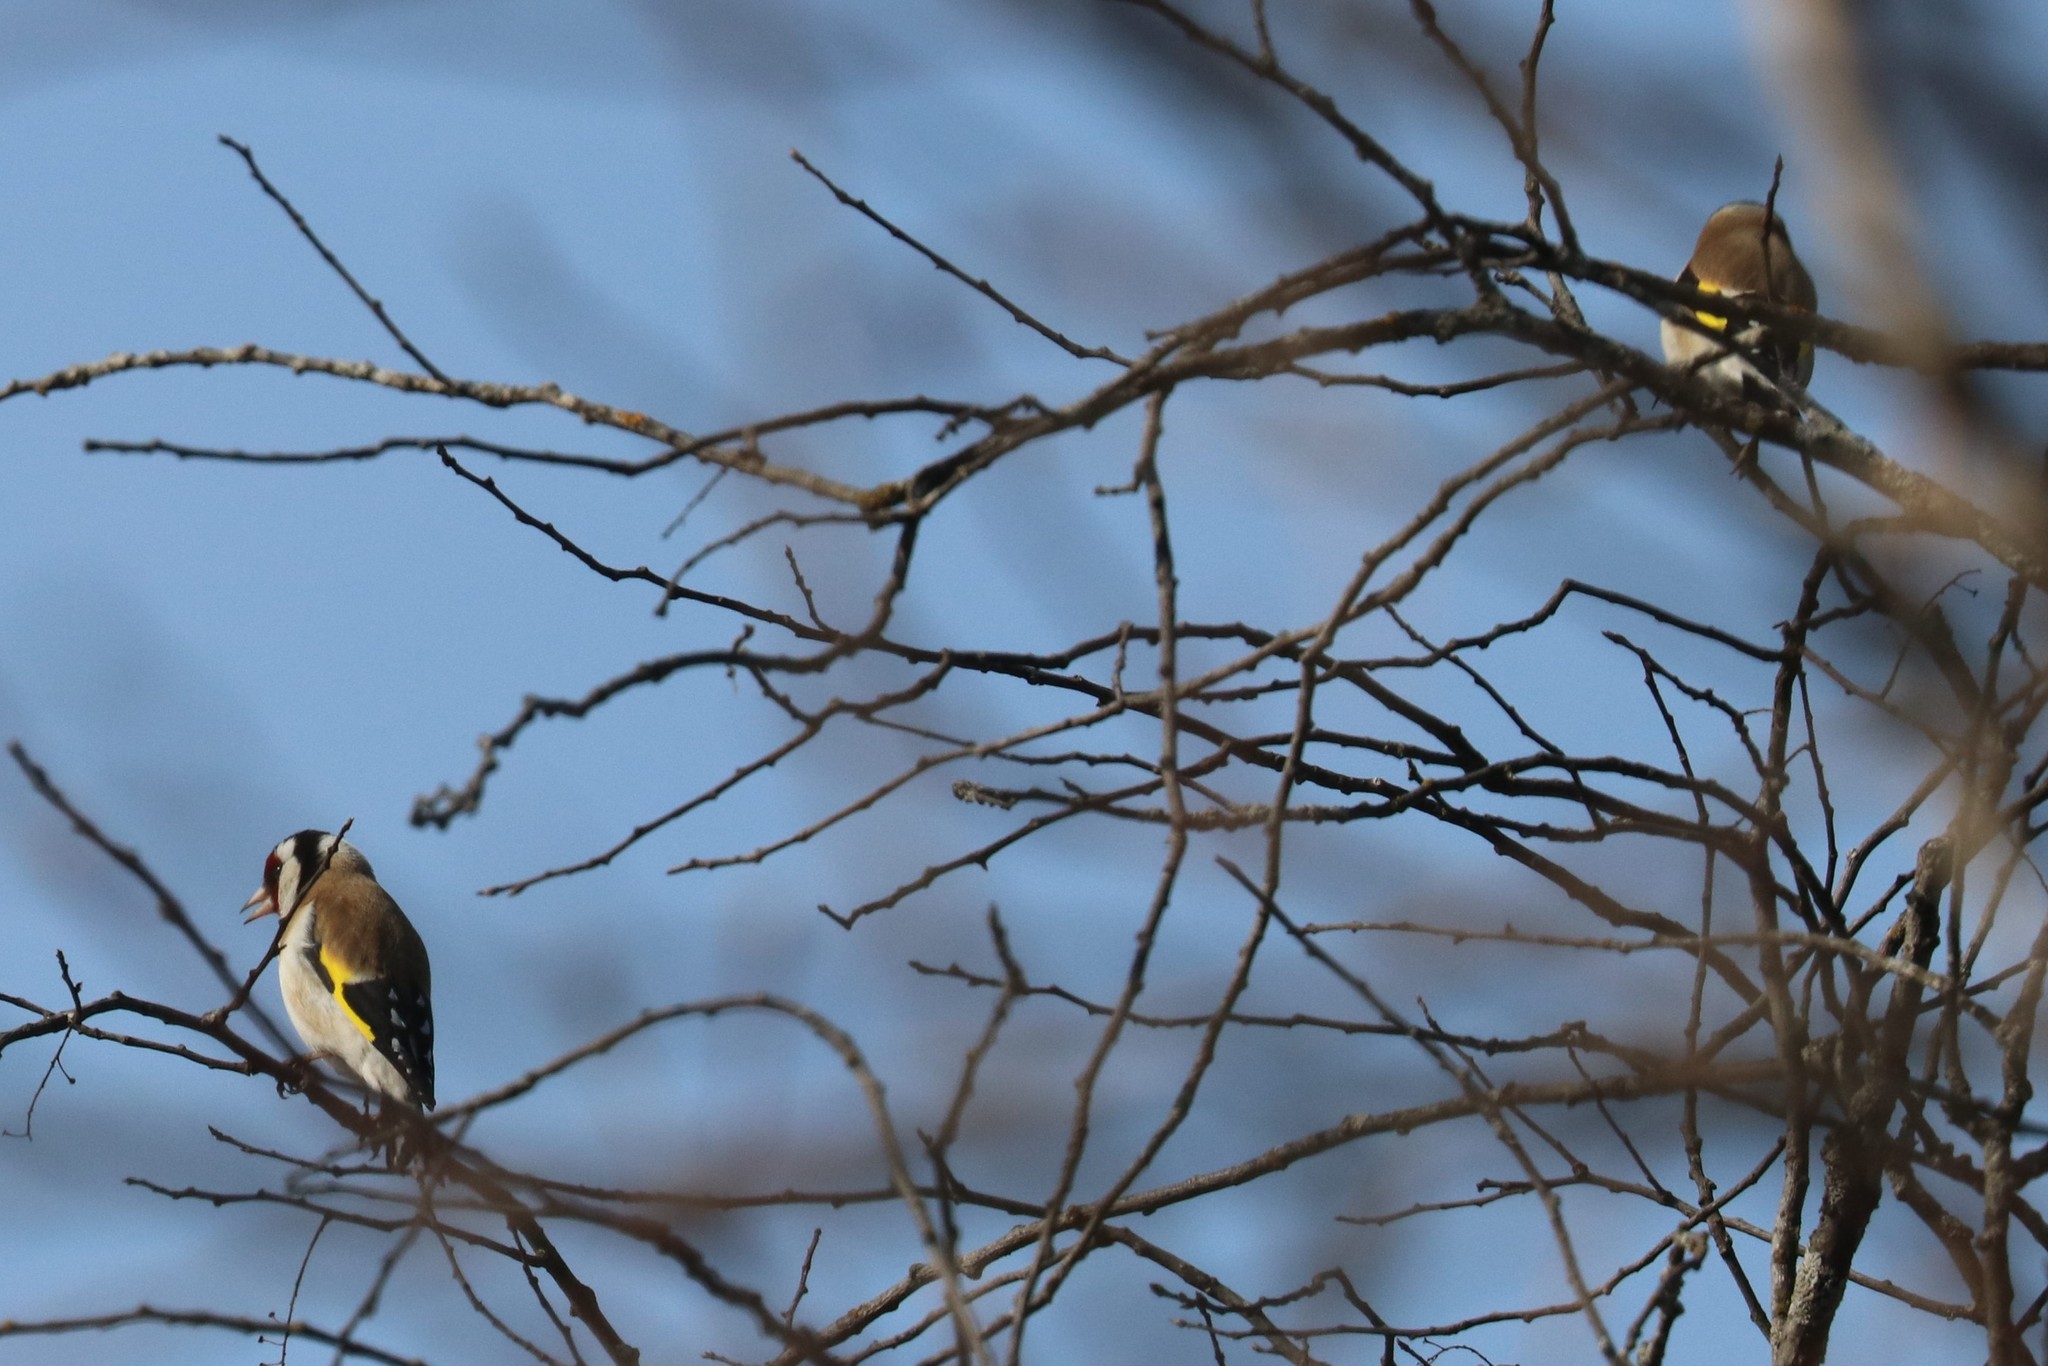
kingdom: Animalia
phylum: Chordata
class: Aves
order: Passeriformes
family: Fringillidae
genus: Carduelis
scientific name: Carduelis carduelis
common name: European goldfinch
